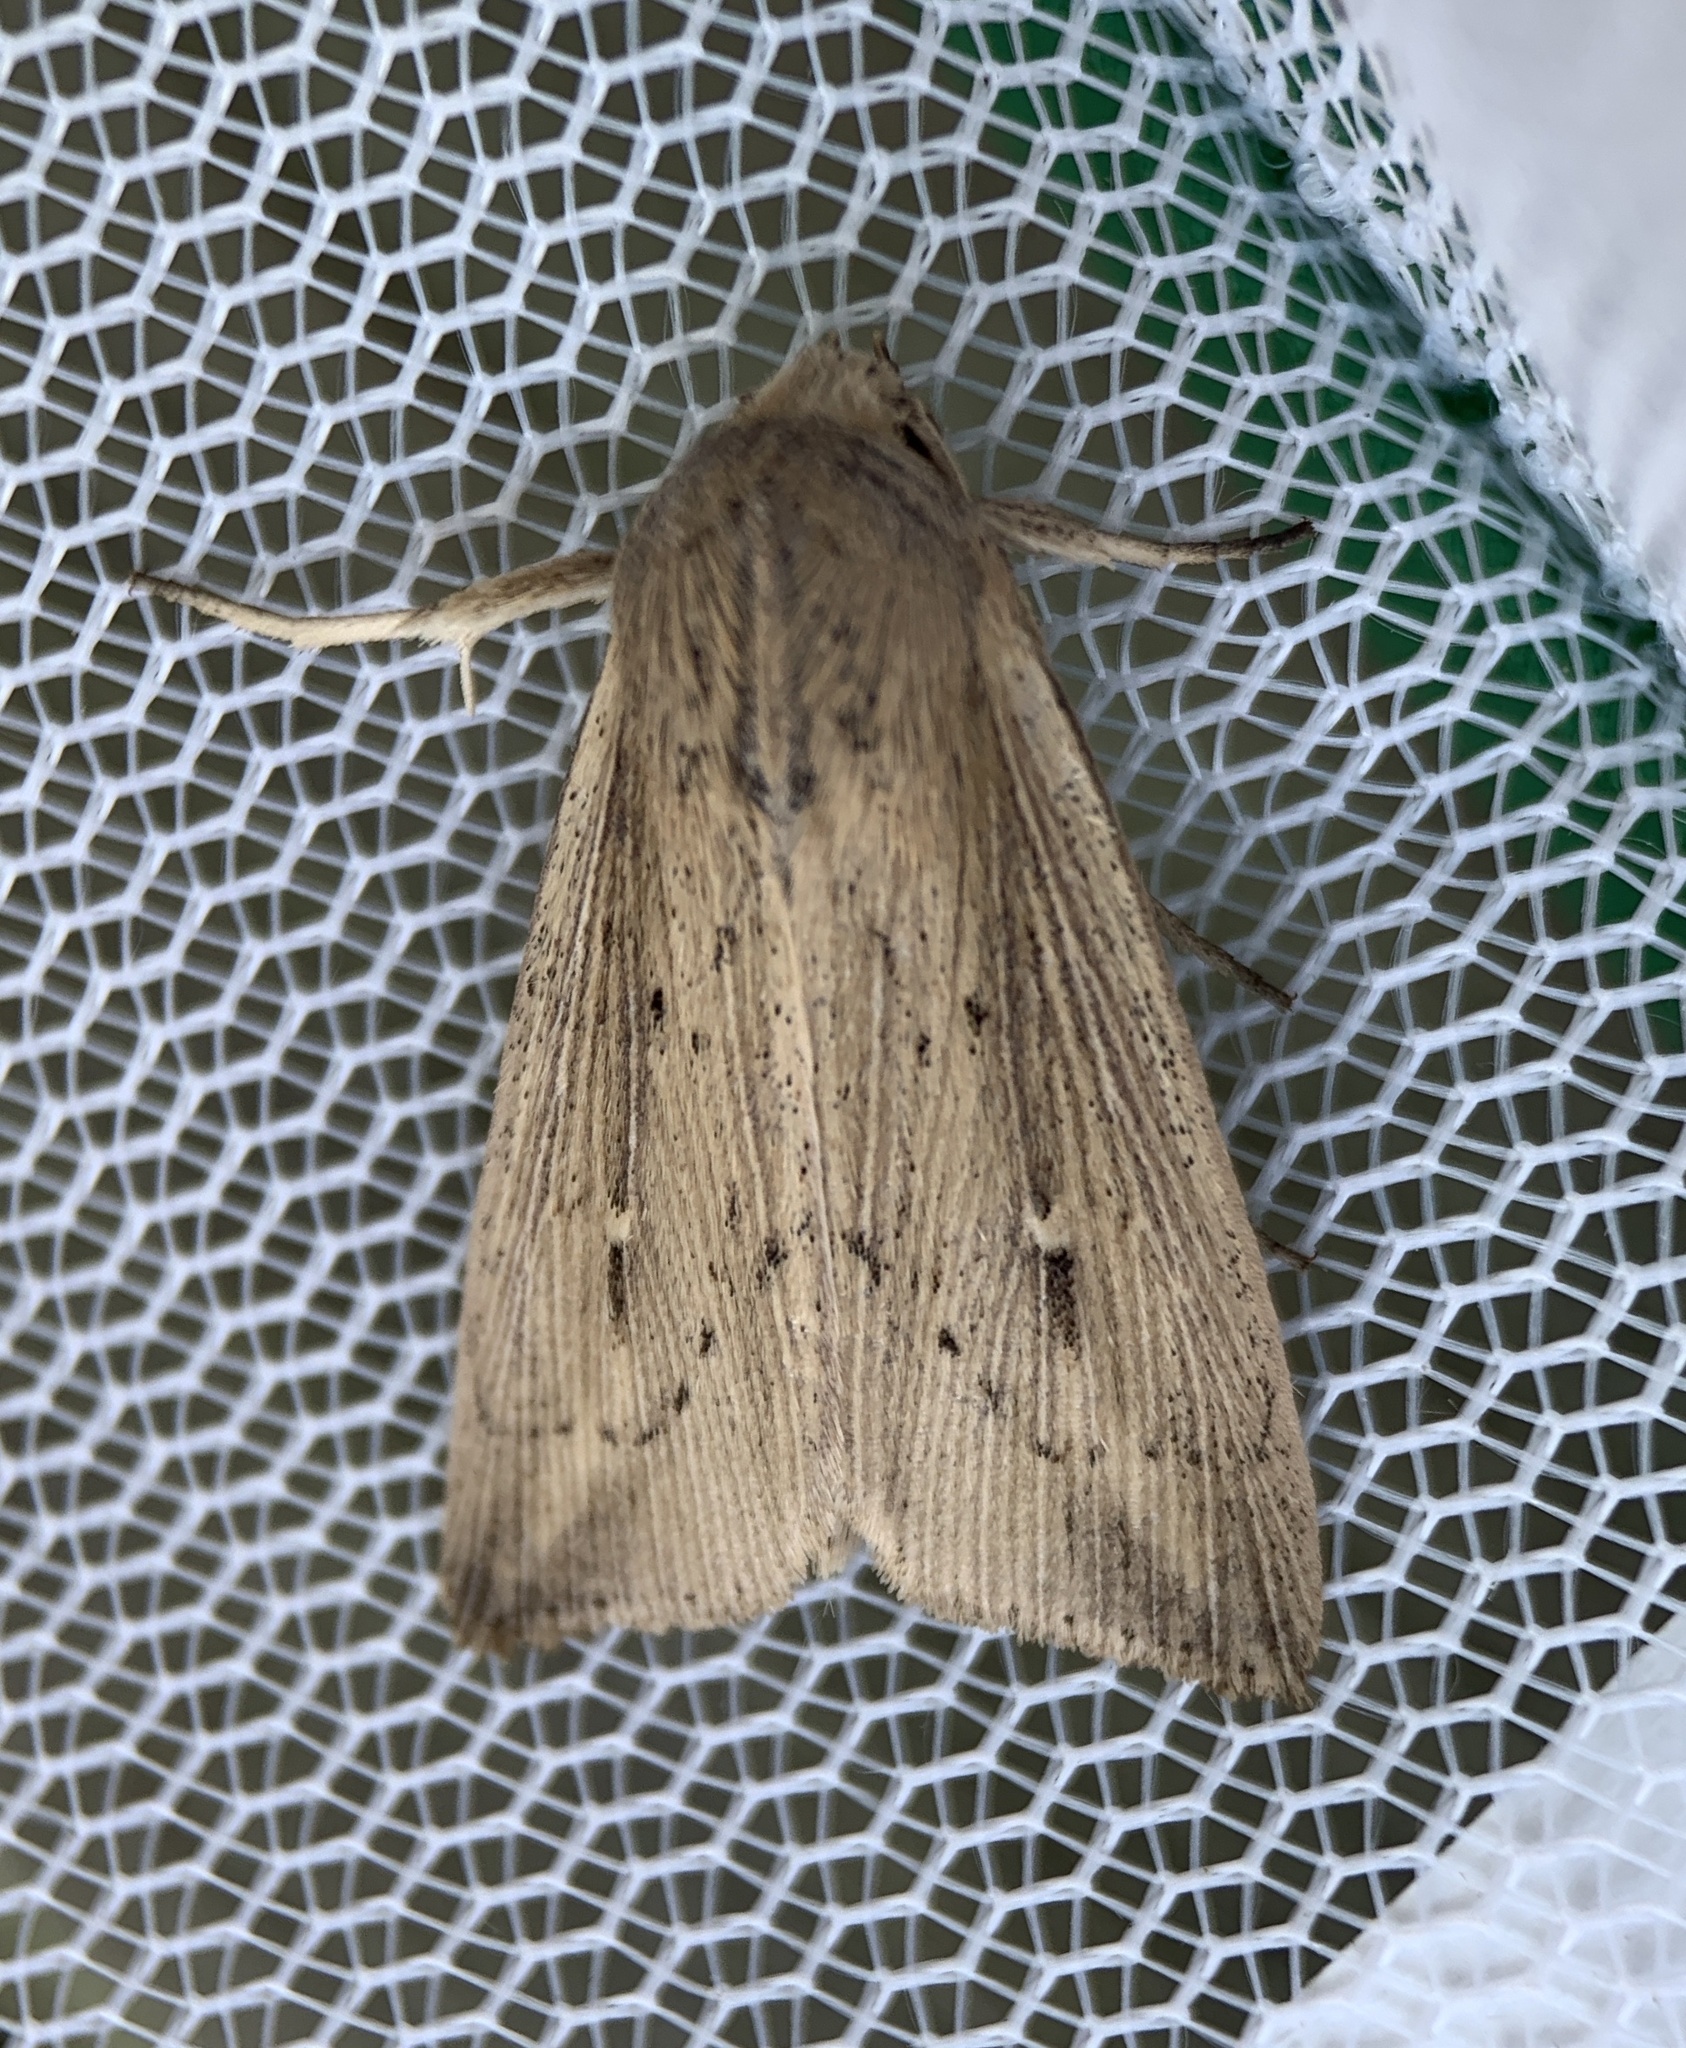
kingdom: Animalia
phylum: Arthropoda
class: Insecta
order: Lepidoptera
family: Noctuidae
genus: Leucania
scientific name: Leucania linita
